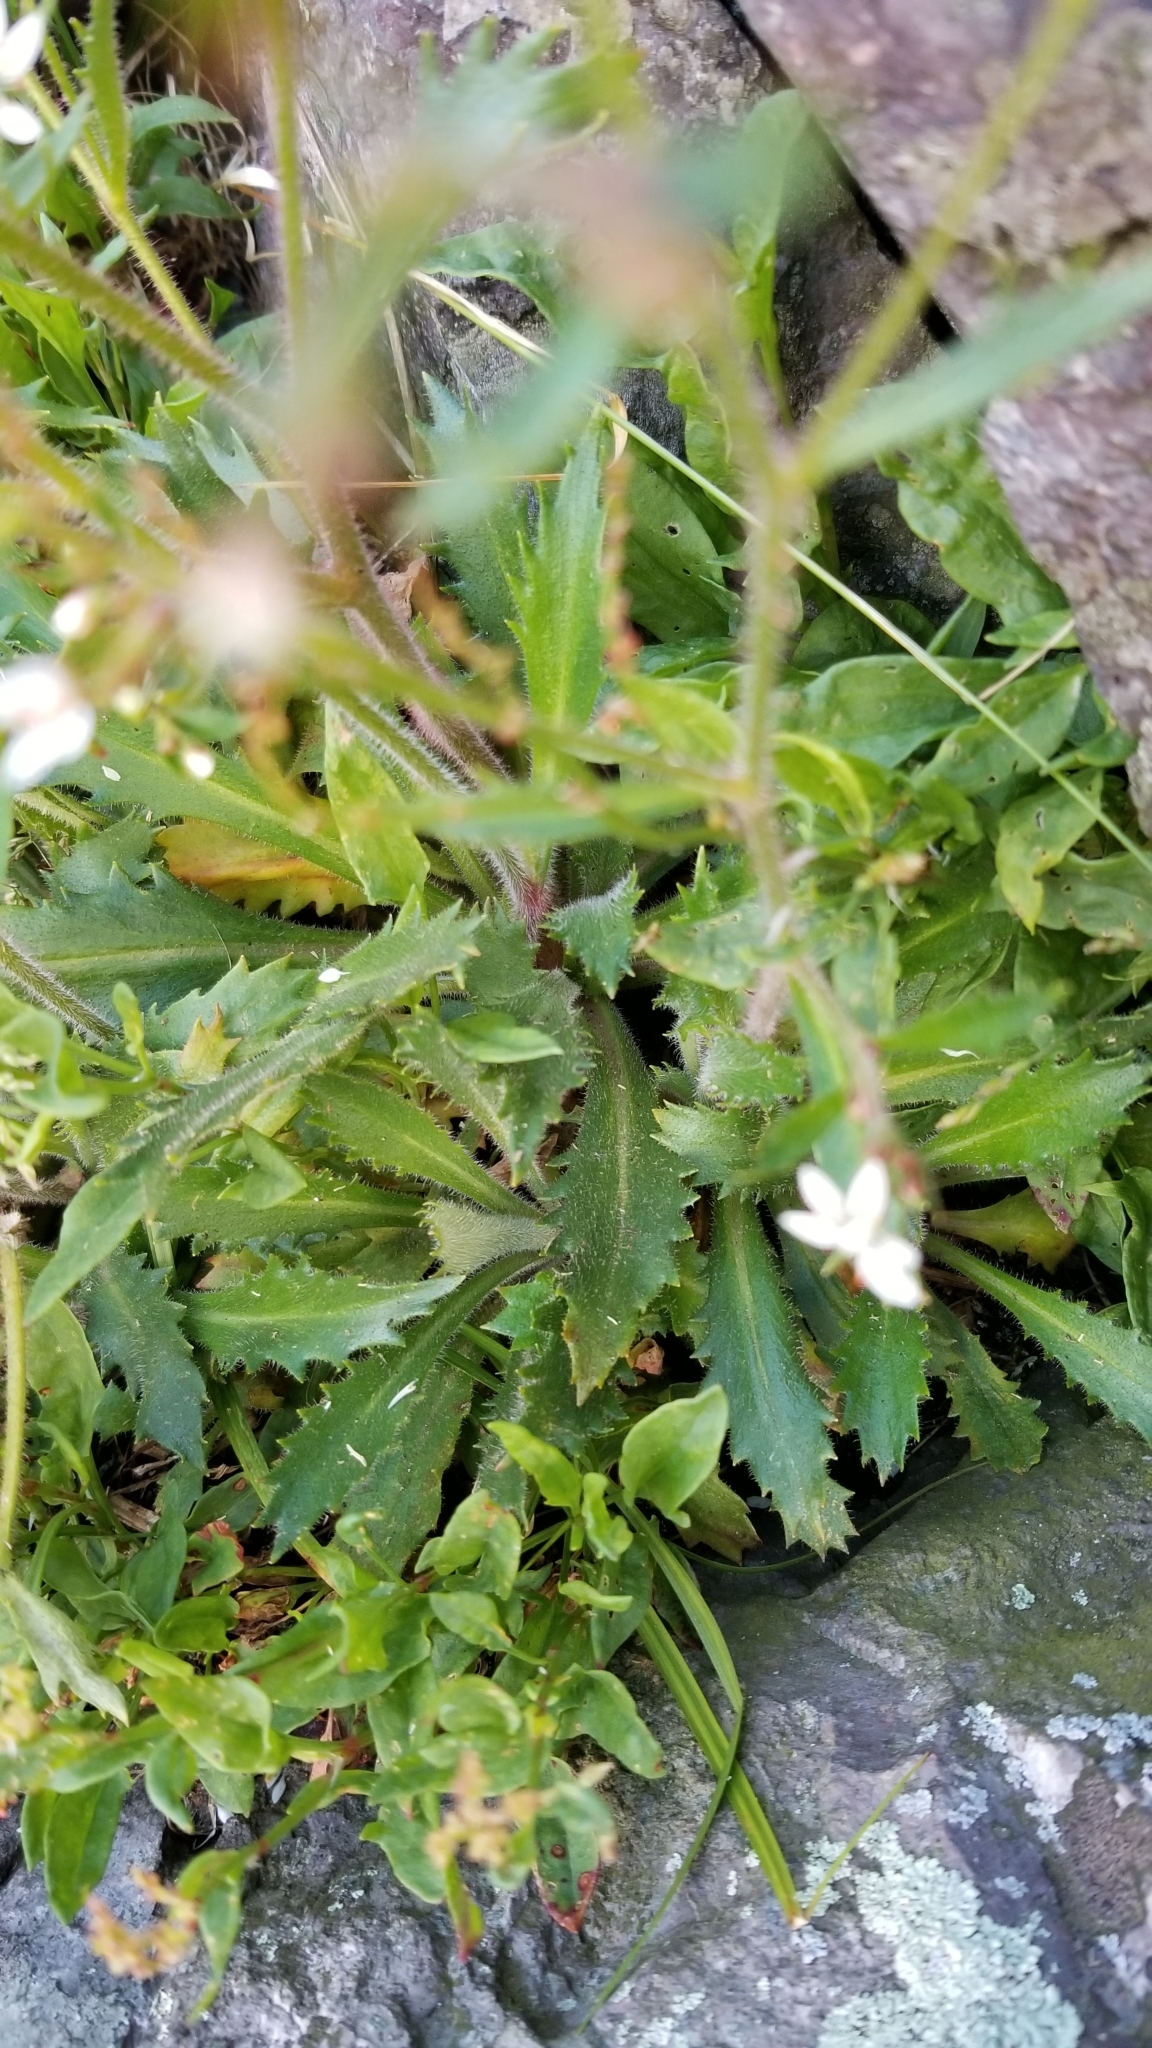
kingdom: Plantae
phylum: Tracheophyta
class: Magnoliopsida
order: Saxifragales
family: Saxifragaceae
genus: Micranthes
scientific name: Micranthes petiolaris
